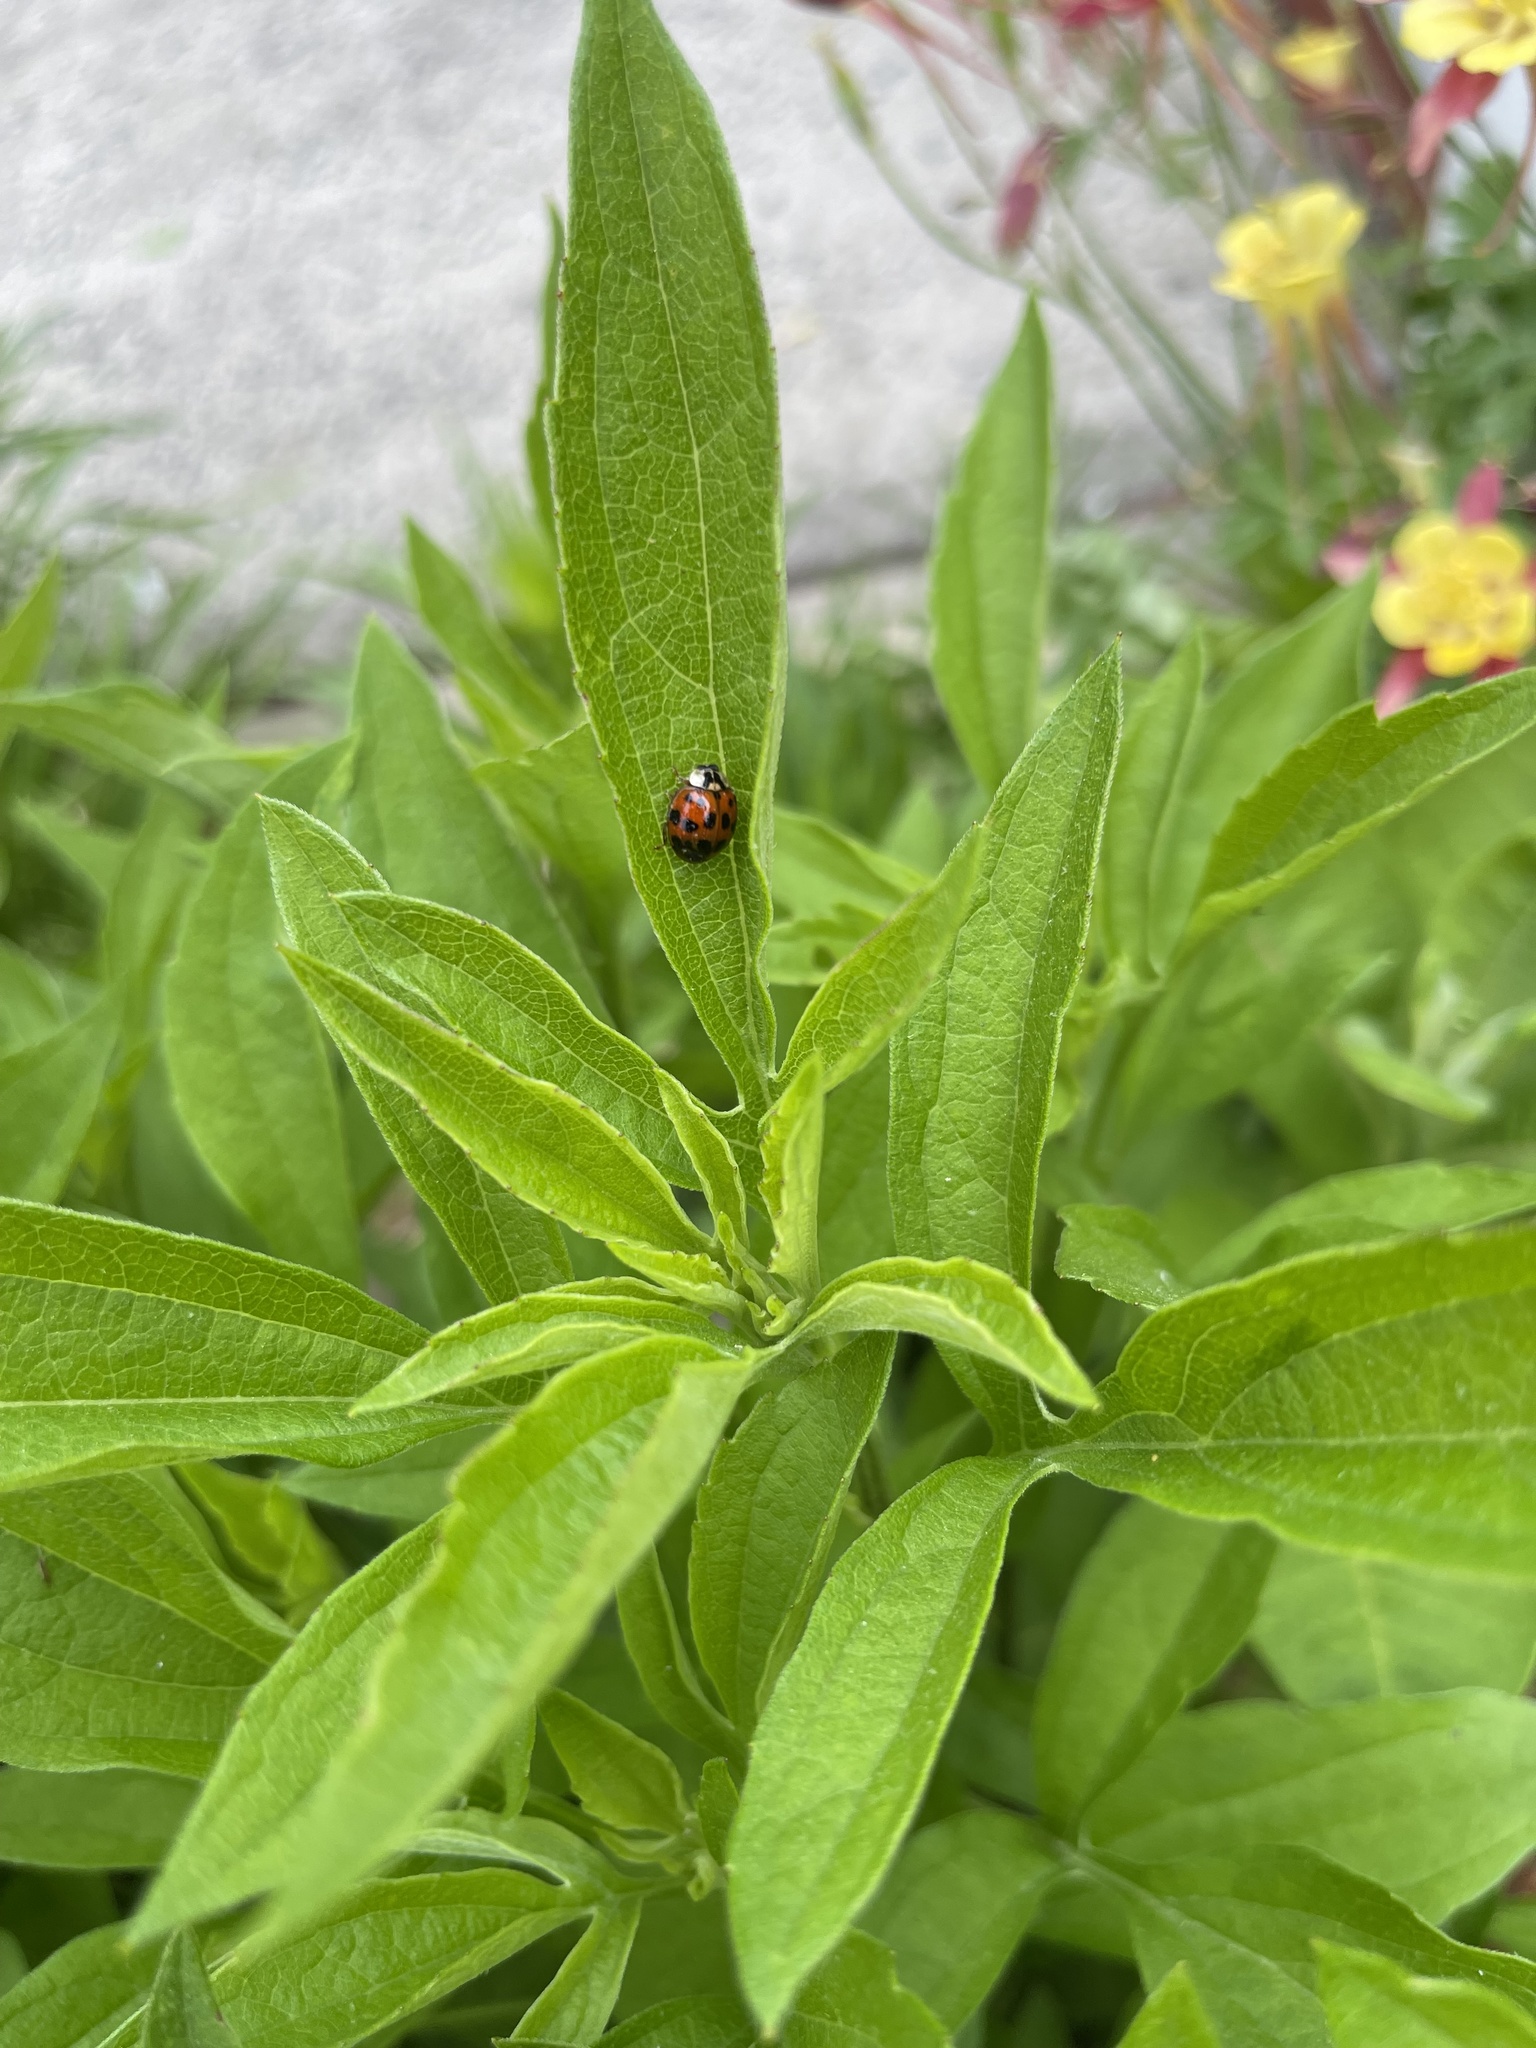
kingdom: Animalia
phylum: Arthropoda
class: Insecta
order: Coleoptera
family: Coccinellidae
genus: Harmonia
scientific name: Harmonia axyridis
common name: Harlequin ladybird
